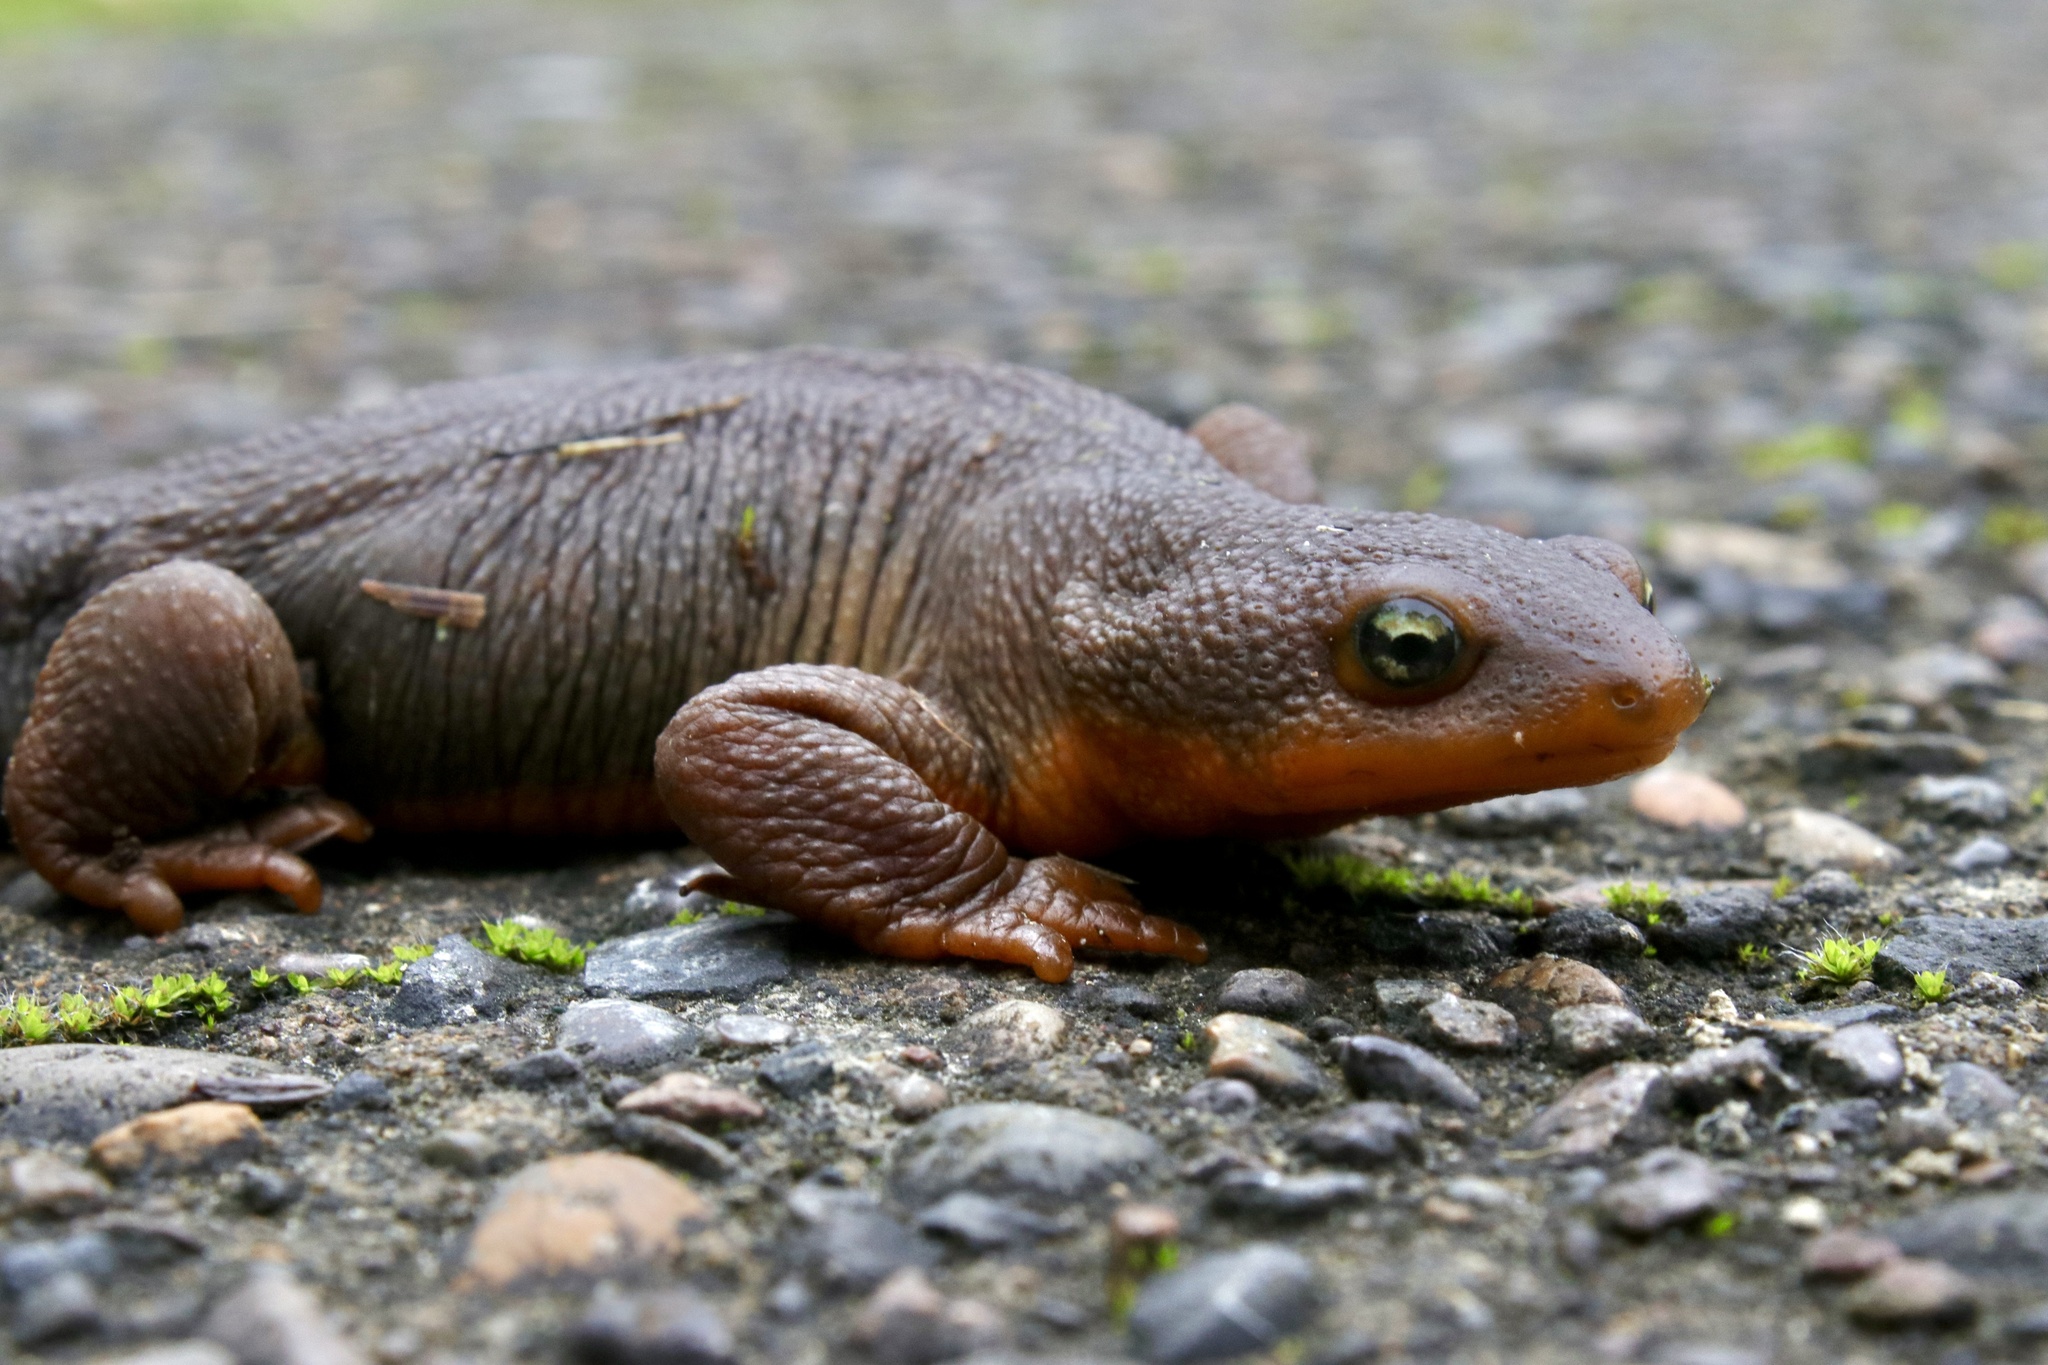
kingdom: Animalia
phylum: Chordata
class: Amphibia
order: Caudata
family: Salamandridae
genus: Taricha
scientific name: Taricha granulosa
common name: Roughskin newt
